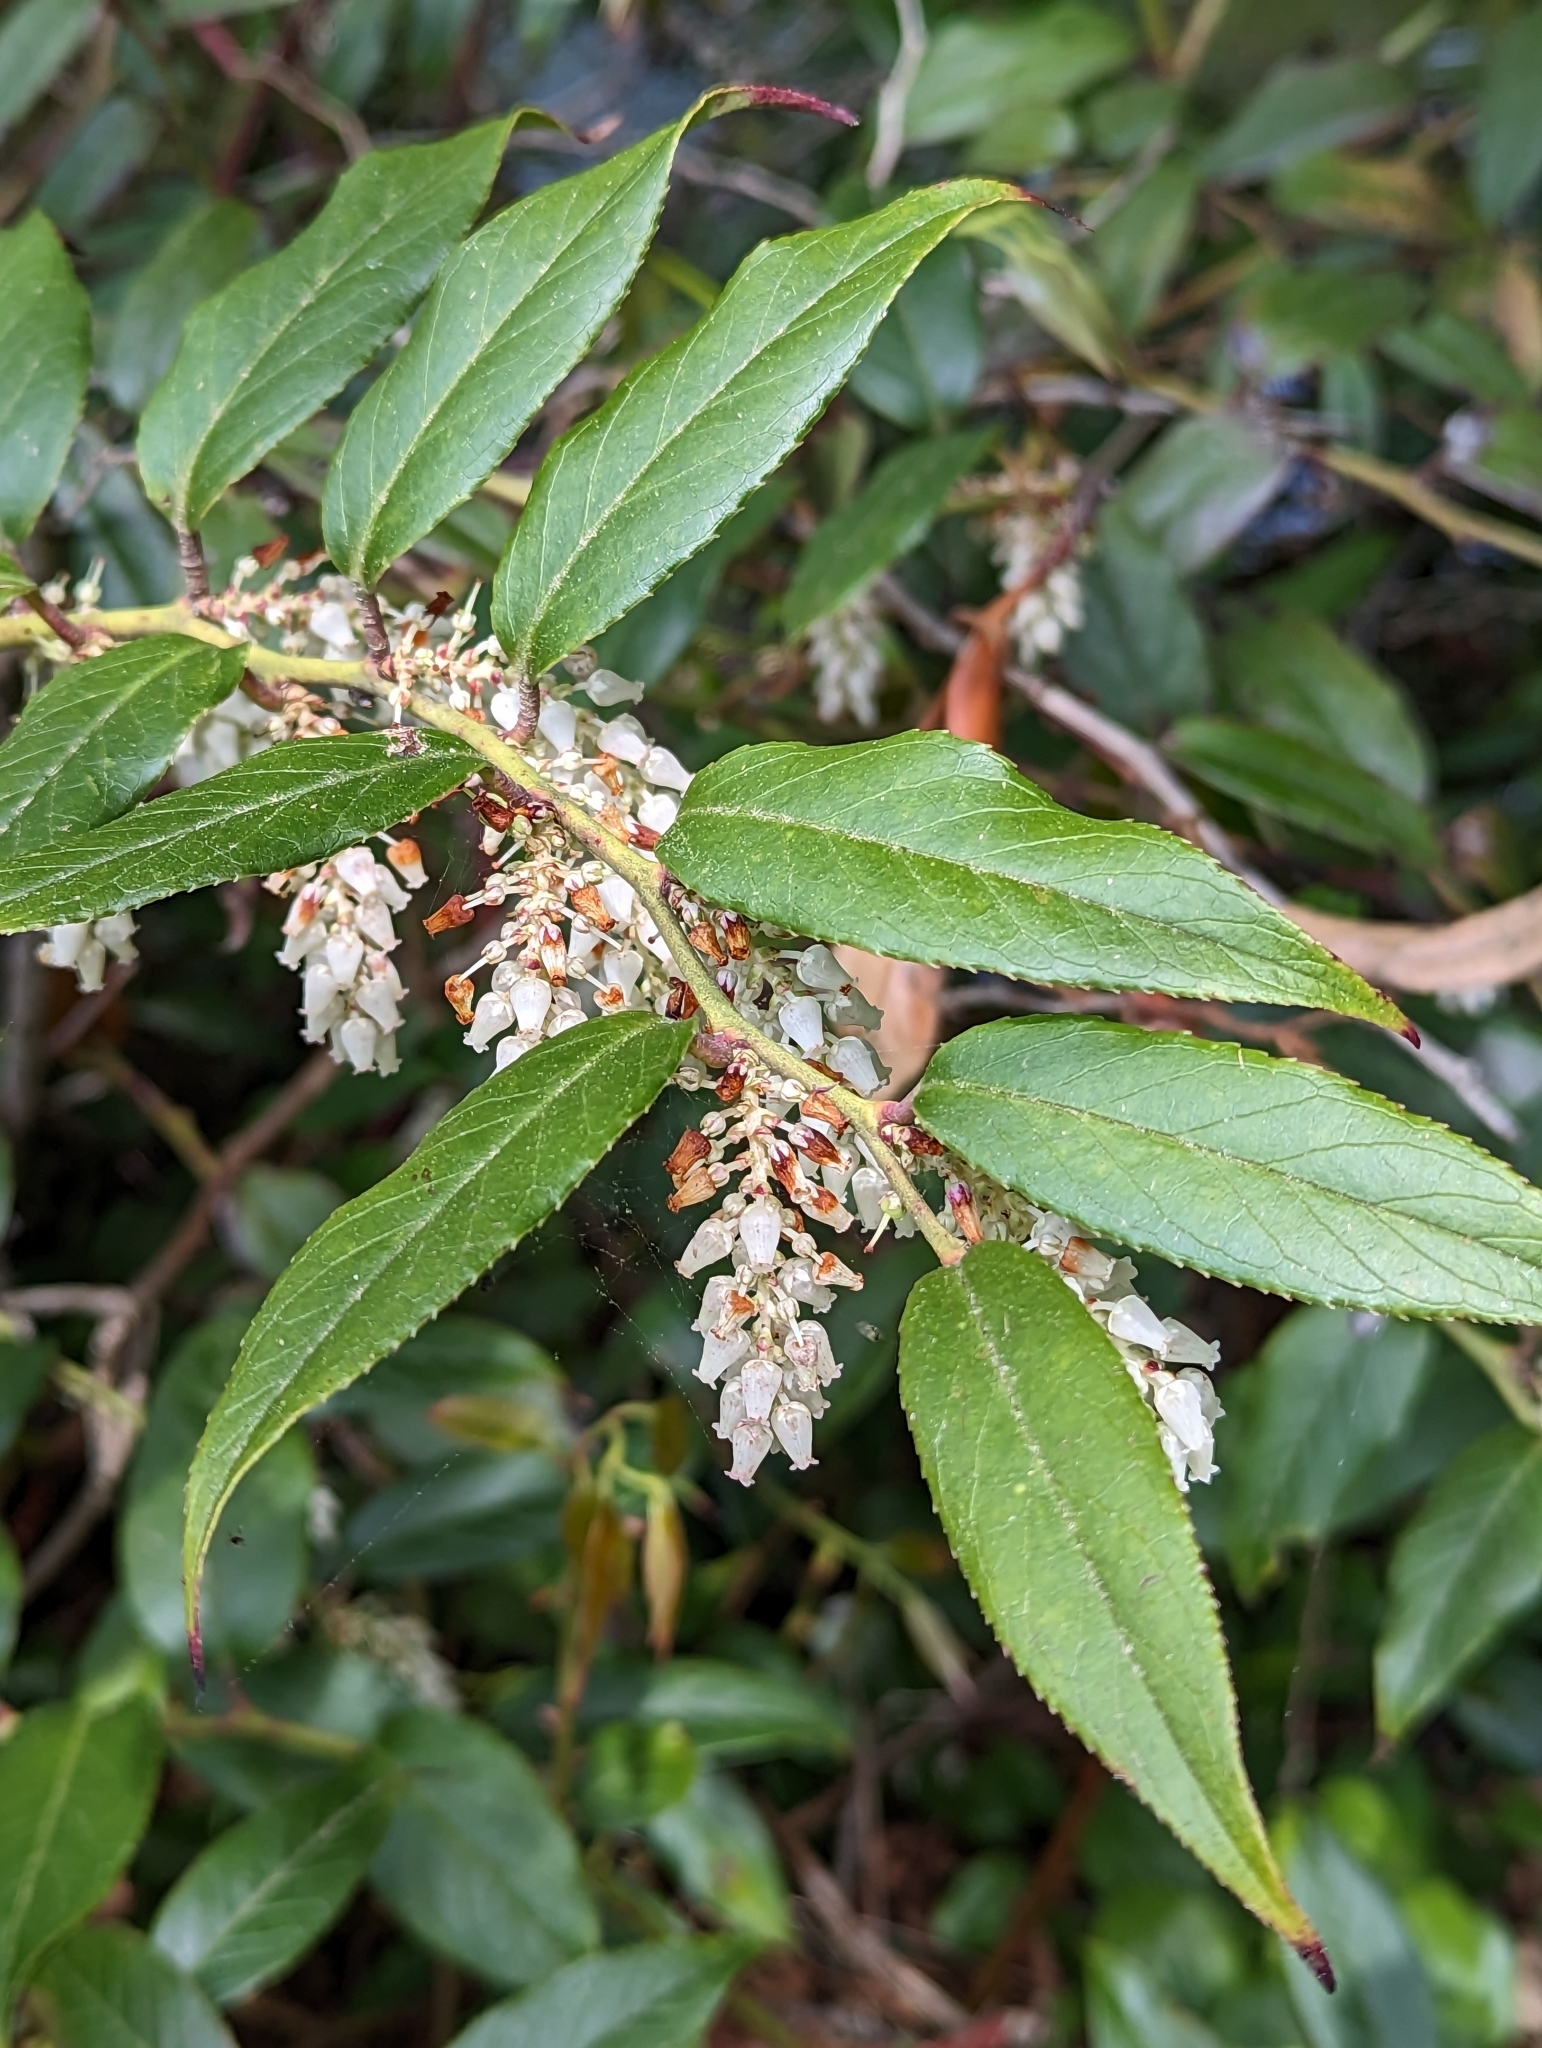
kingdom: Plantae
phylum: Tracheophyta
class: Magnoliopsida
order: Ericales
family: Ericaceae
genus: Leucothoe
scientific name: Leucothoe fontanesiana
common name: Fetterbush
